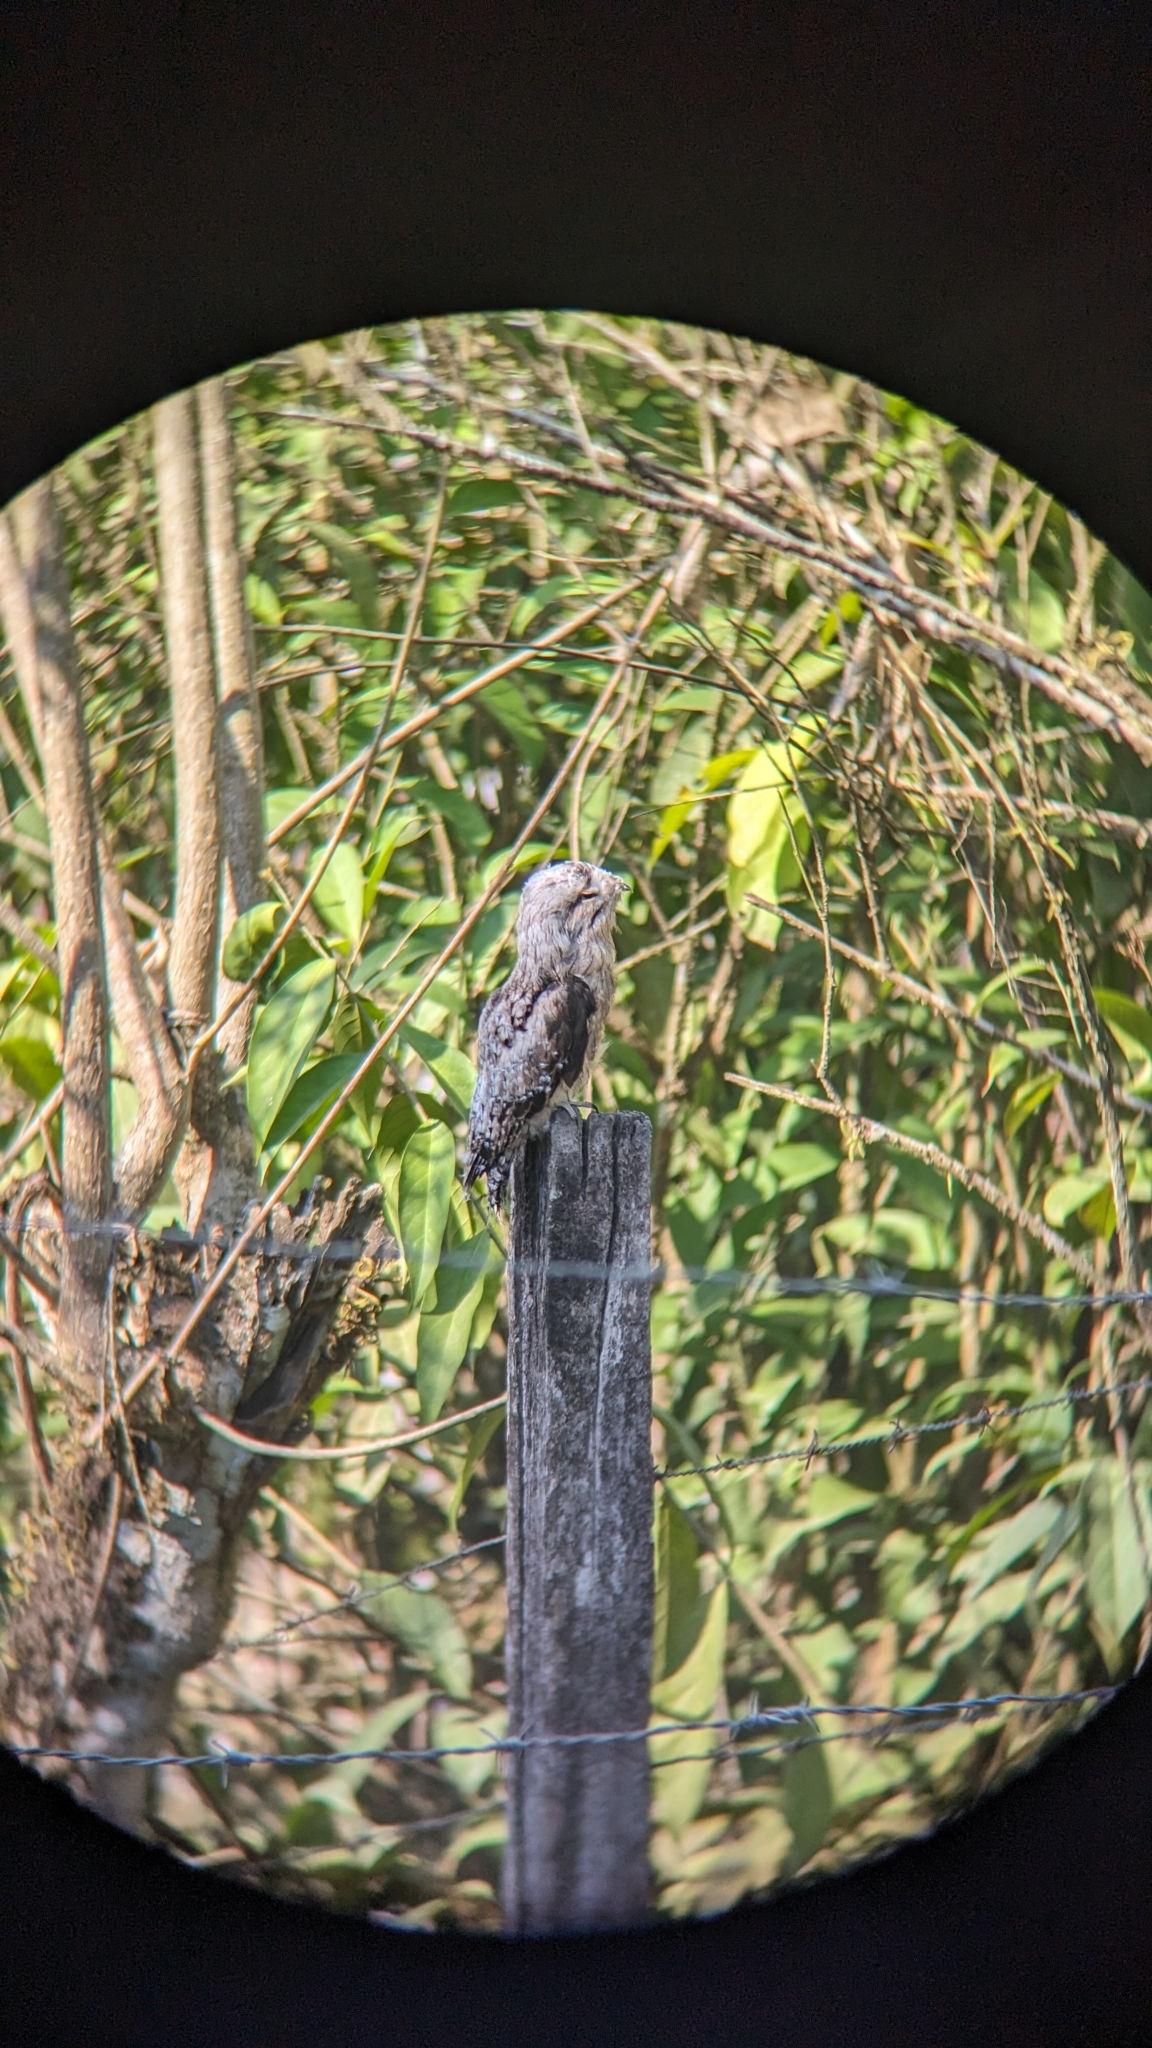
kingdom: Animalia
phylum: Chordata
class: Aves
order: Nyctibiiformes
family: Nyctibiidae
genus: Nyctibius
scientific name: Nyctibius griseus
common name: Common potoo
